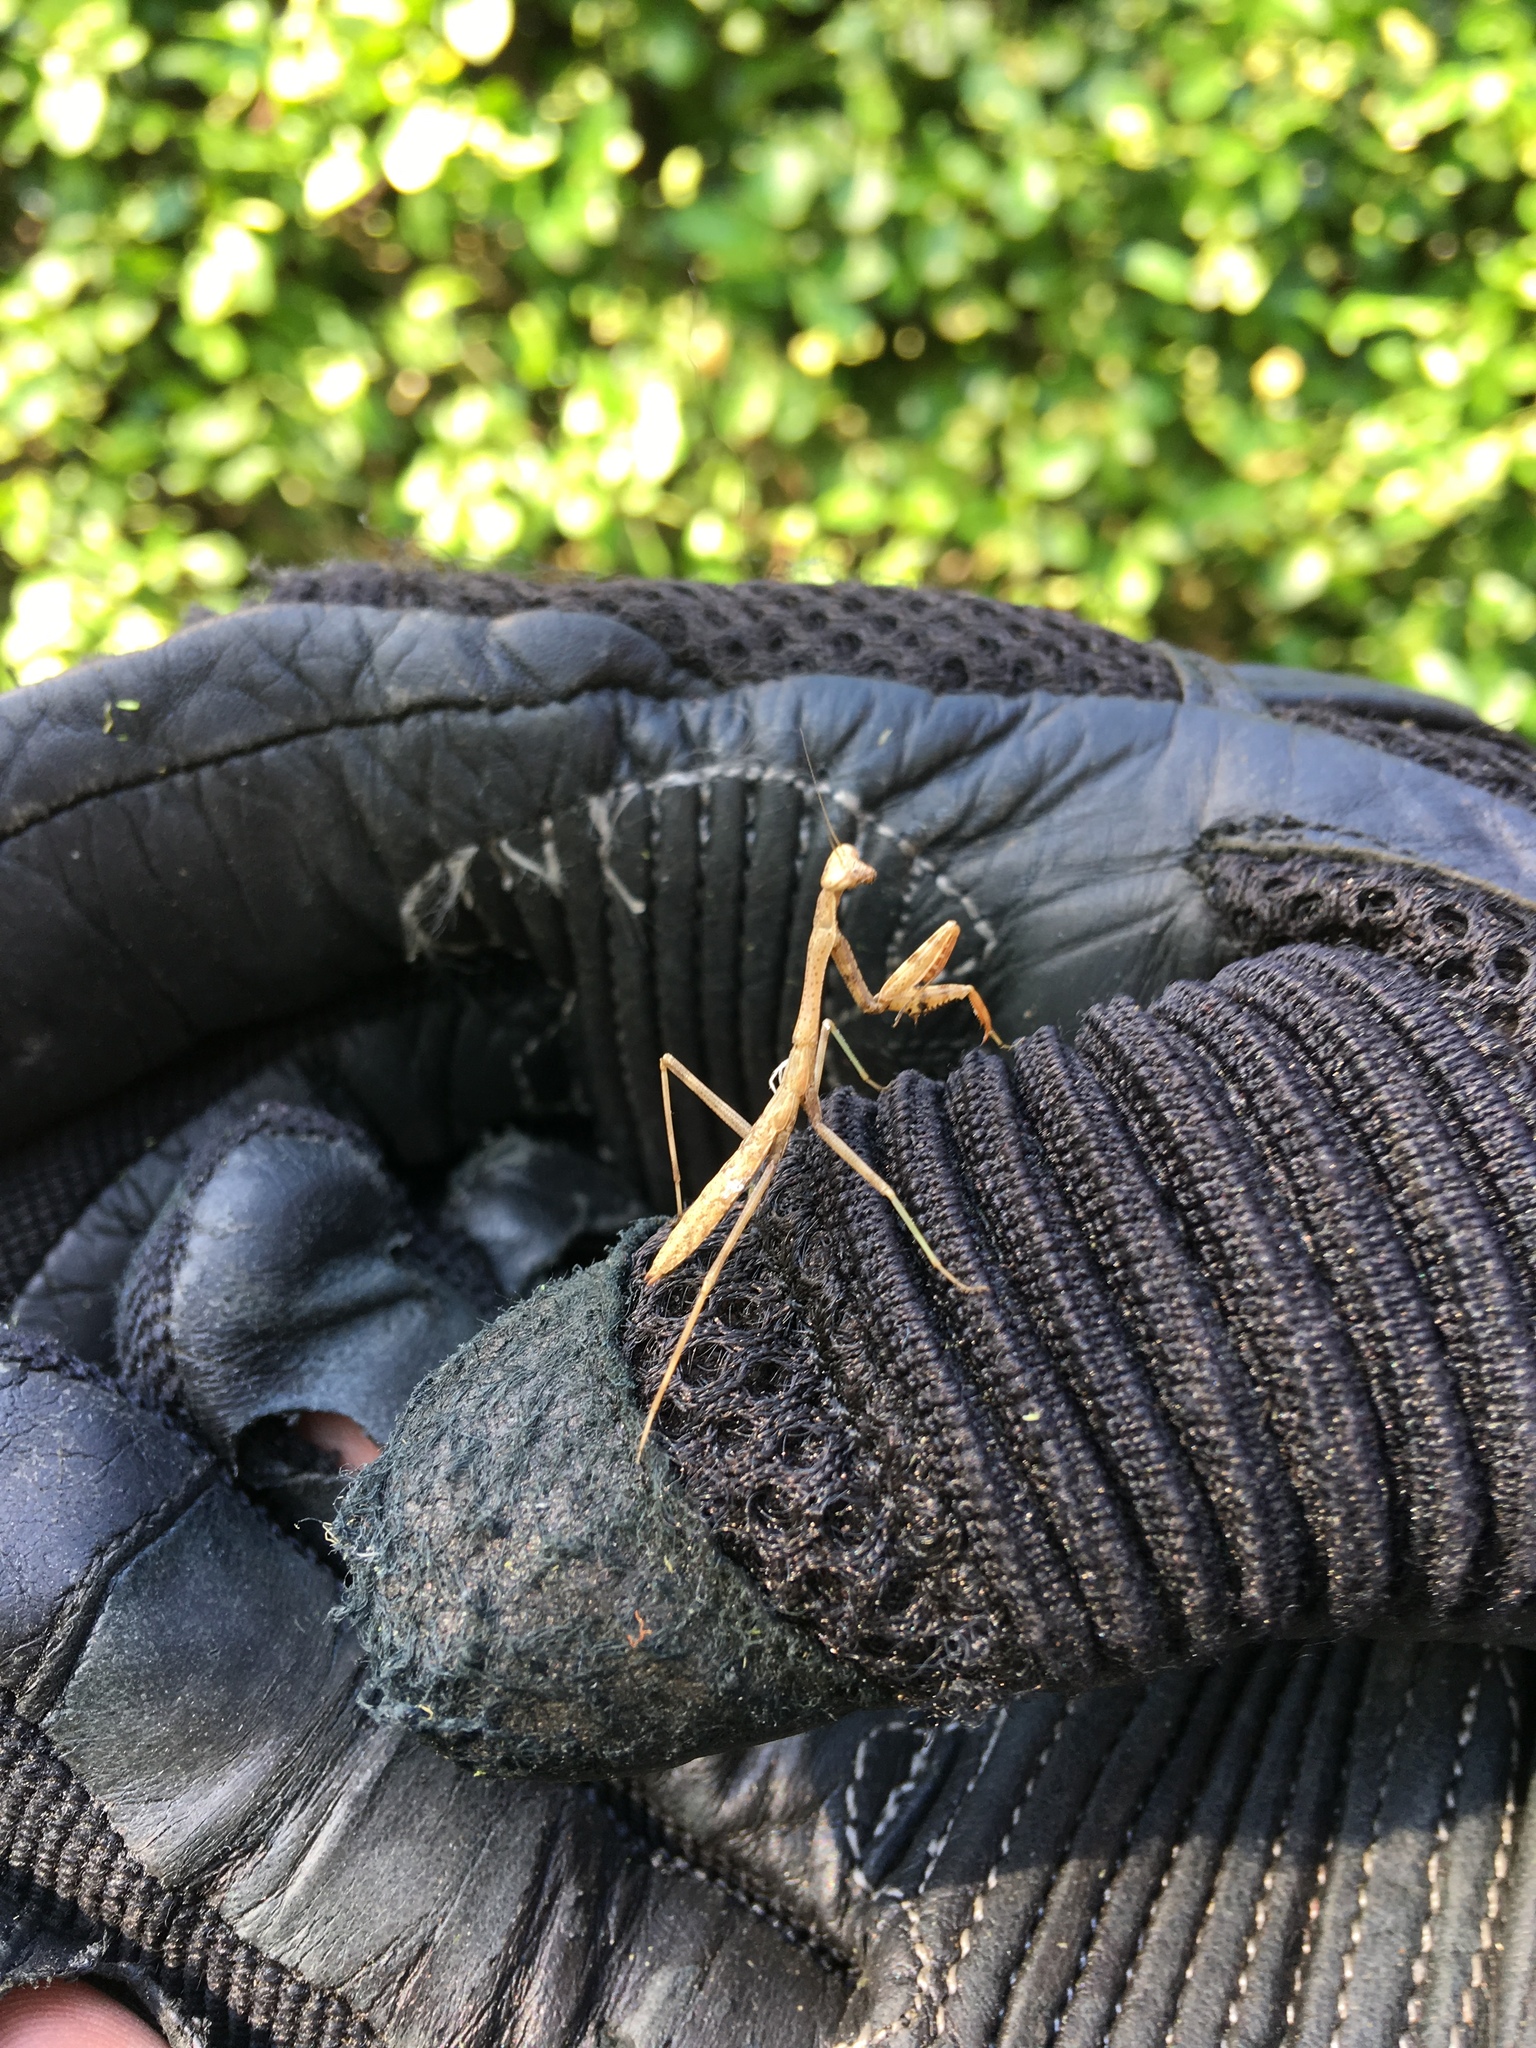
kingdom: Animalia
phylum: Arthropoda
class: Insecta
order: Mantodea
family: Mantidae
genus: Stagmomantis
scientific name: Stagmomantis carolina
